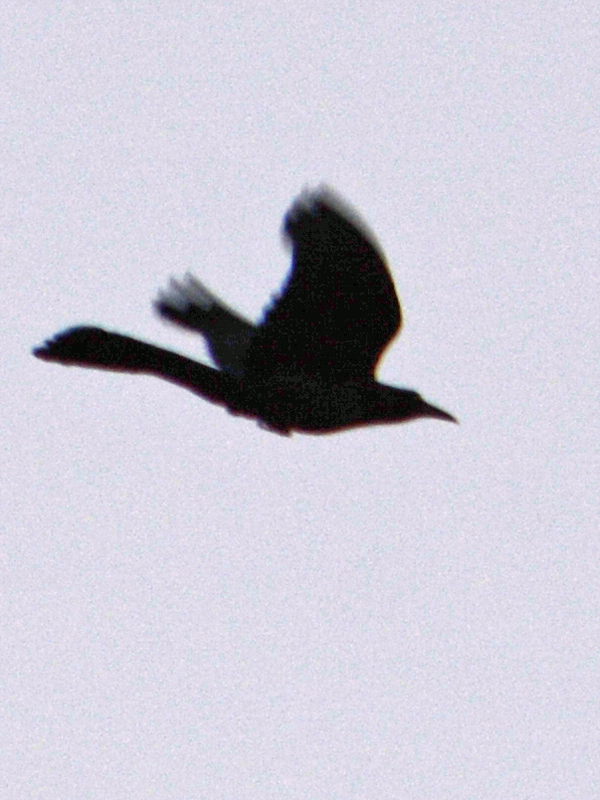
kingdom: Animalia
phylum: Chordata
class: Aves
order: Passeriformes
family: Icteridae
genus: Quiscalus
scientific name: Quiscalus mexicanus
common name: Great-tailed grackle
